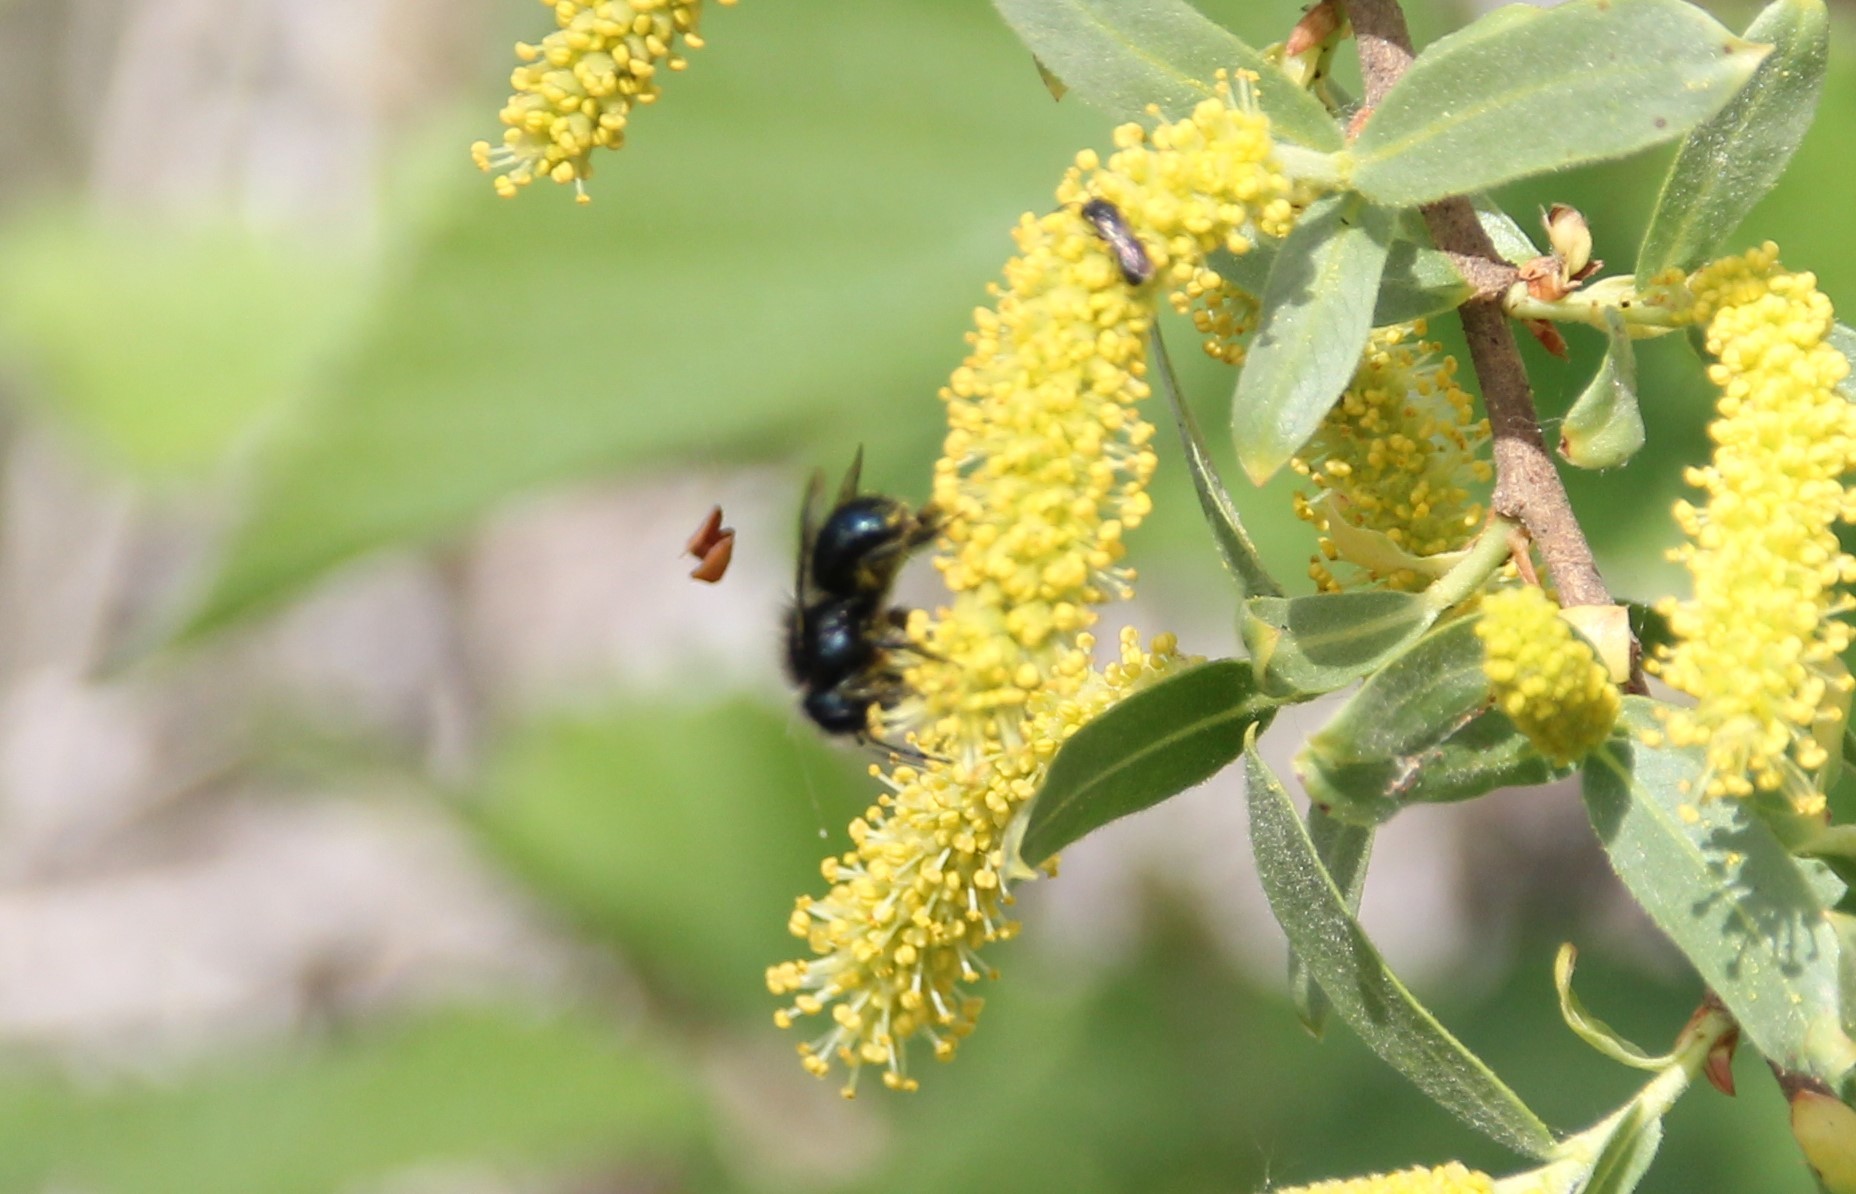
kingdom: Animalia
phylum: Arthropoda
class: Insecta
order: Hymenoptera
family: Megachilidae
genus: Osmia
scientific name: Osmia lignaria
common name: Blue orchard bee
